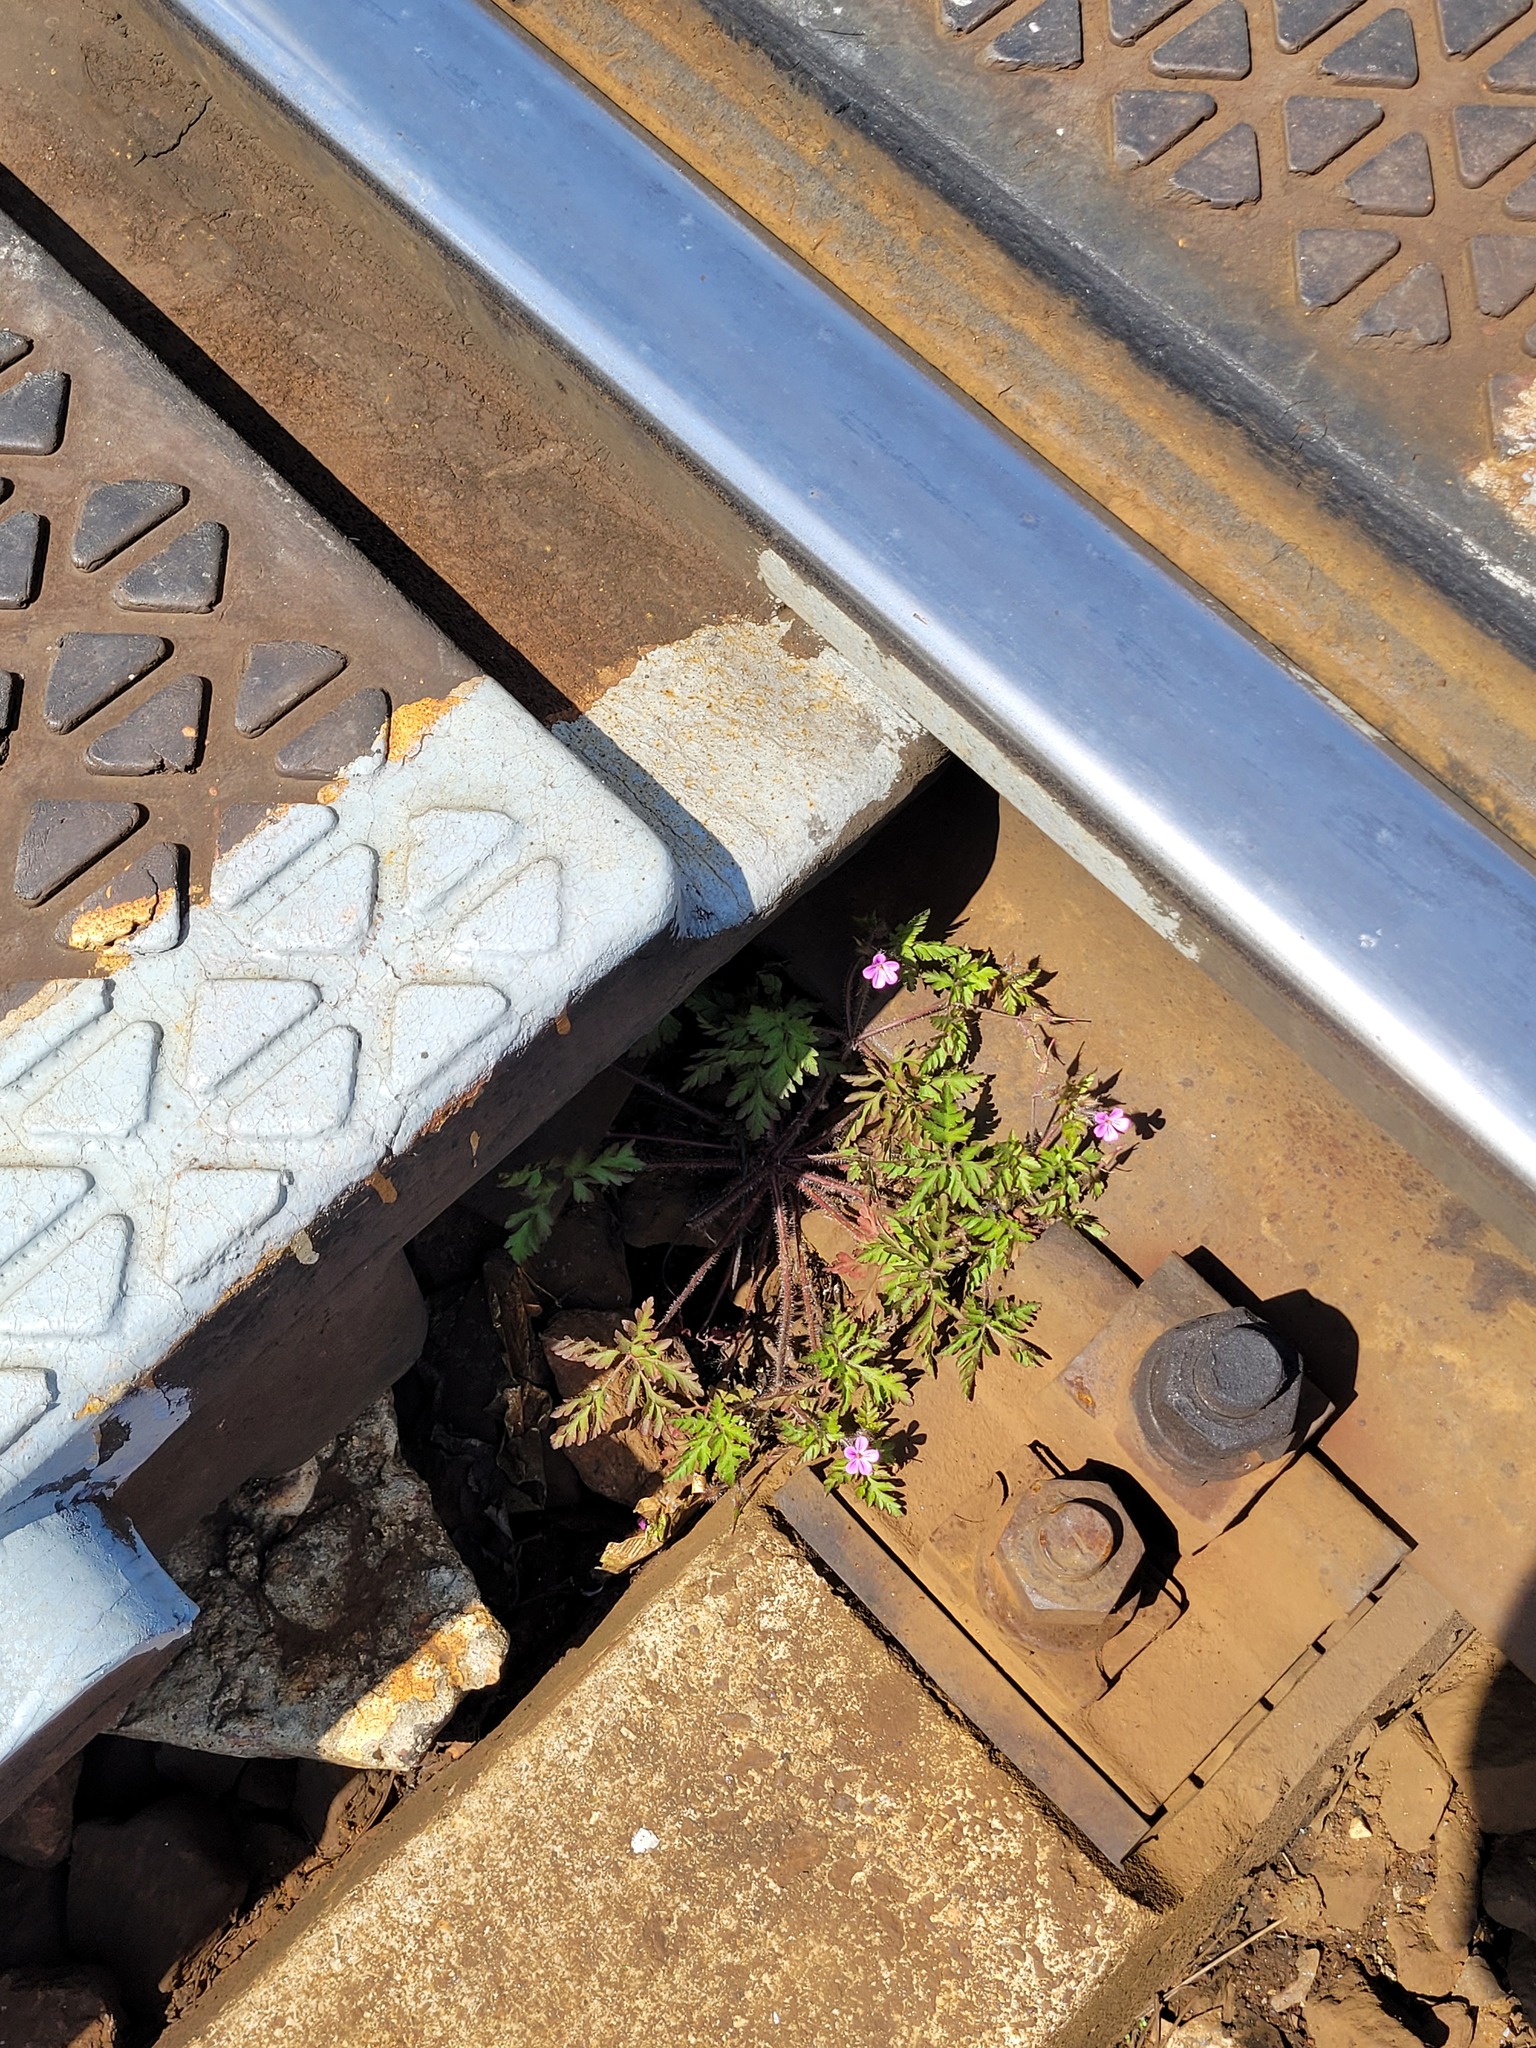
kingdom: Plantae
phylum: Tracheophyta
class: Magnoliopsida
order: Geraniales
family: Geraniaceae
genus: Geranium
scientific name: Geranium robertianum
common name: Herb-robert
